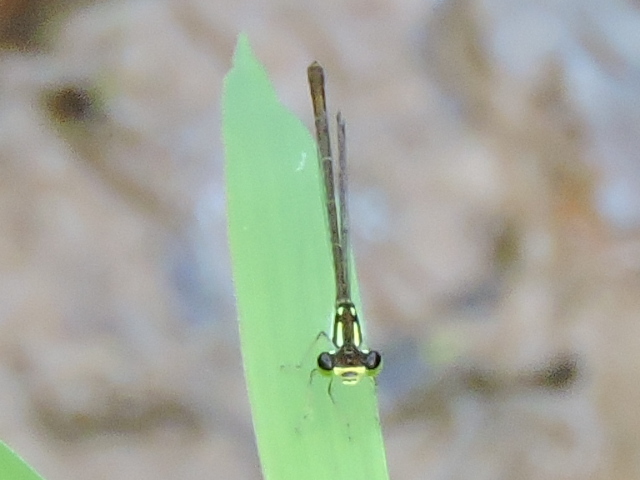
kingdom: Animalia
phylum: Arthropoda
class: Insecta
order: Odonata
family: Coenagrionidae
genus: Ischnura
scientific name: Ischnura posita
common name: Fragile forktail
